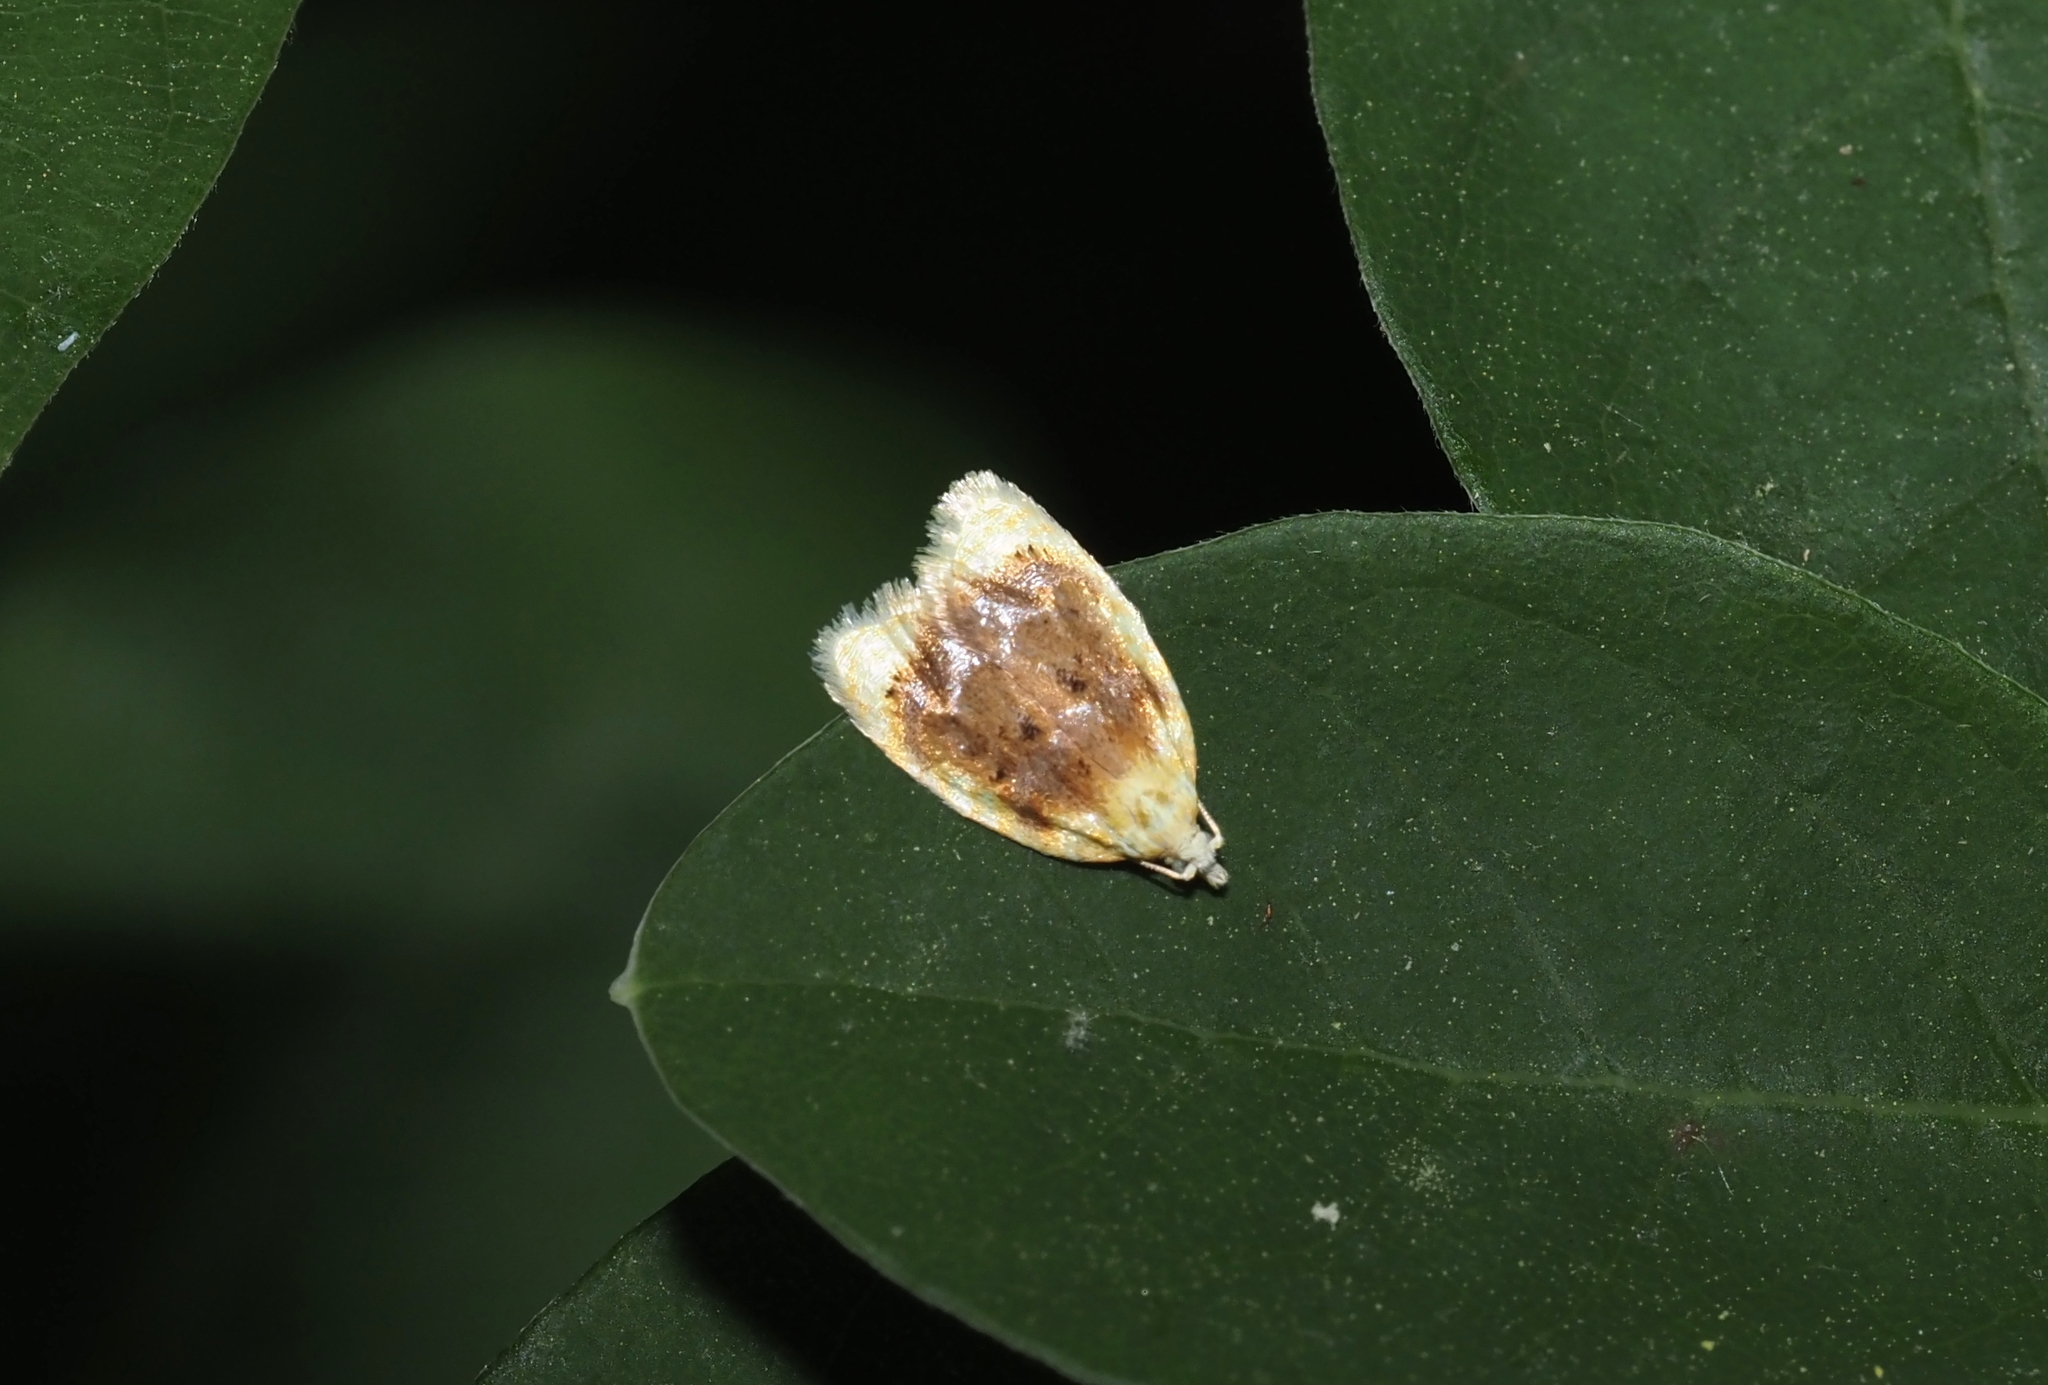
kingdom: Animalia
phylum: Arthropoda
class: Insecta
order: Lepidoptera
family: Tortricidae
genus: Acleris
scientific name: Acleris semipurpurana
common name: Oak leaftier moth
